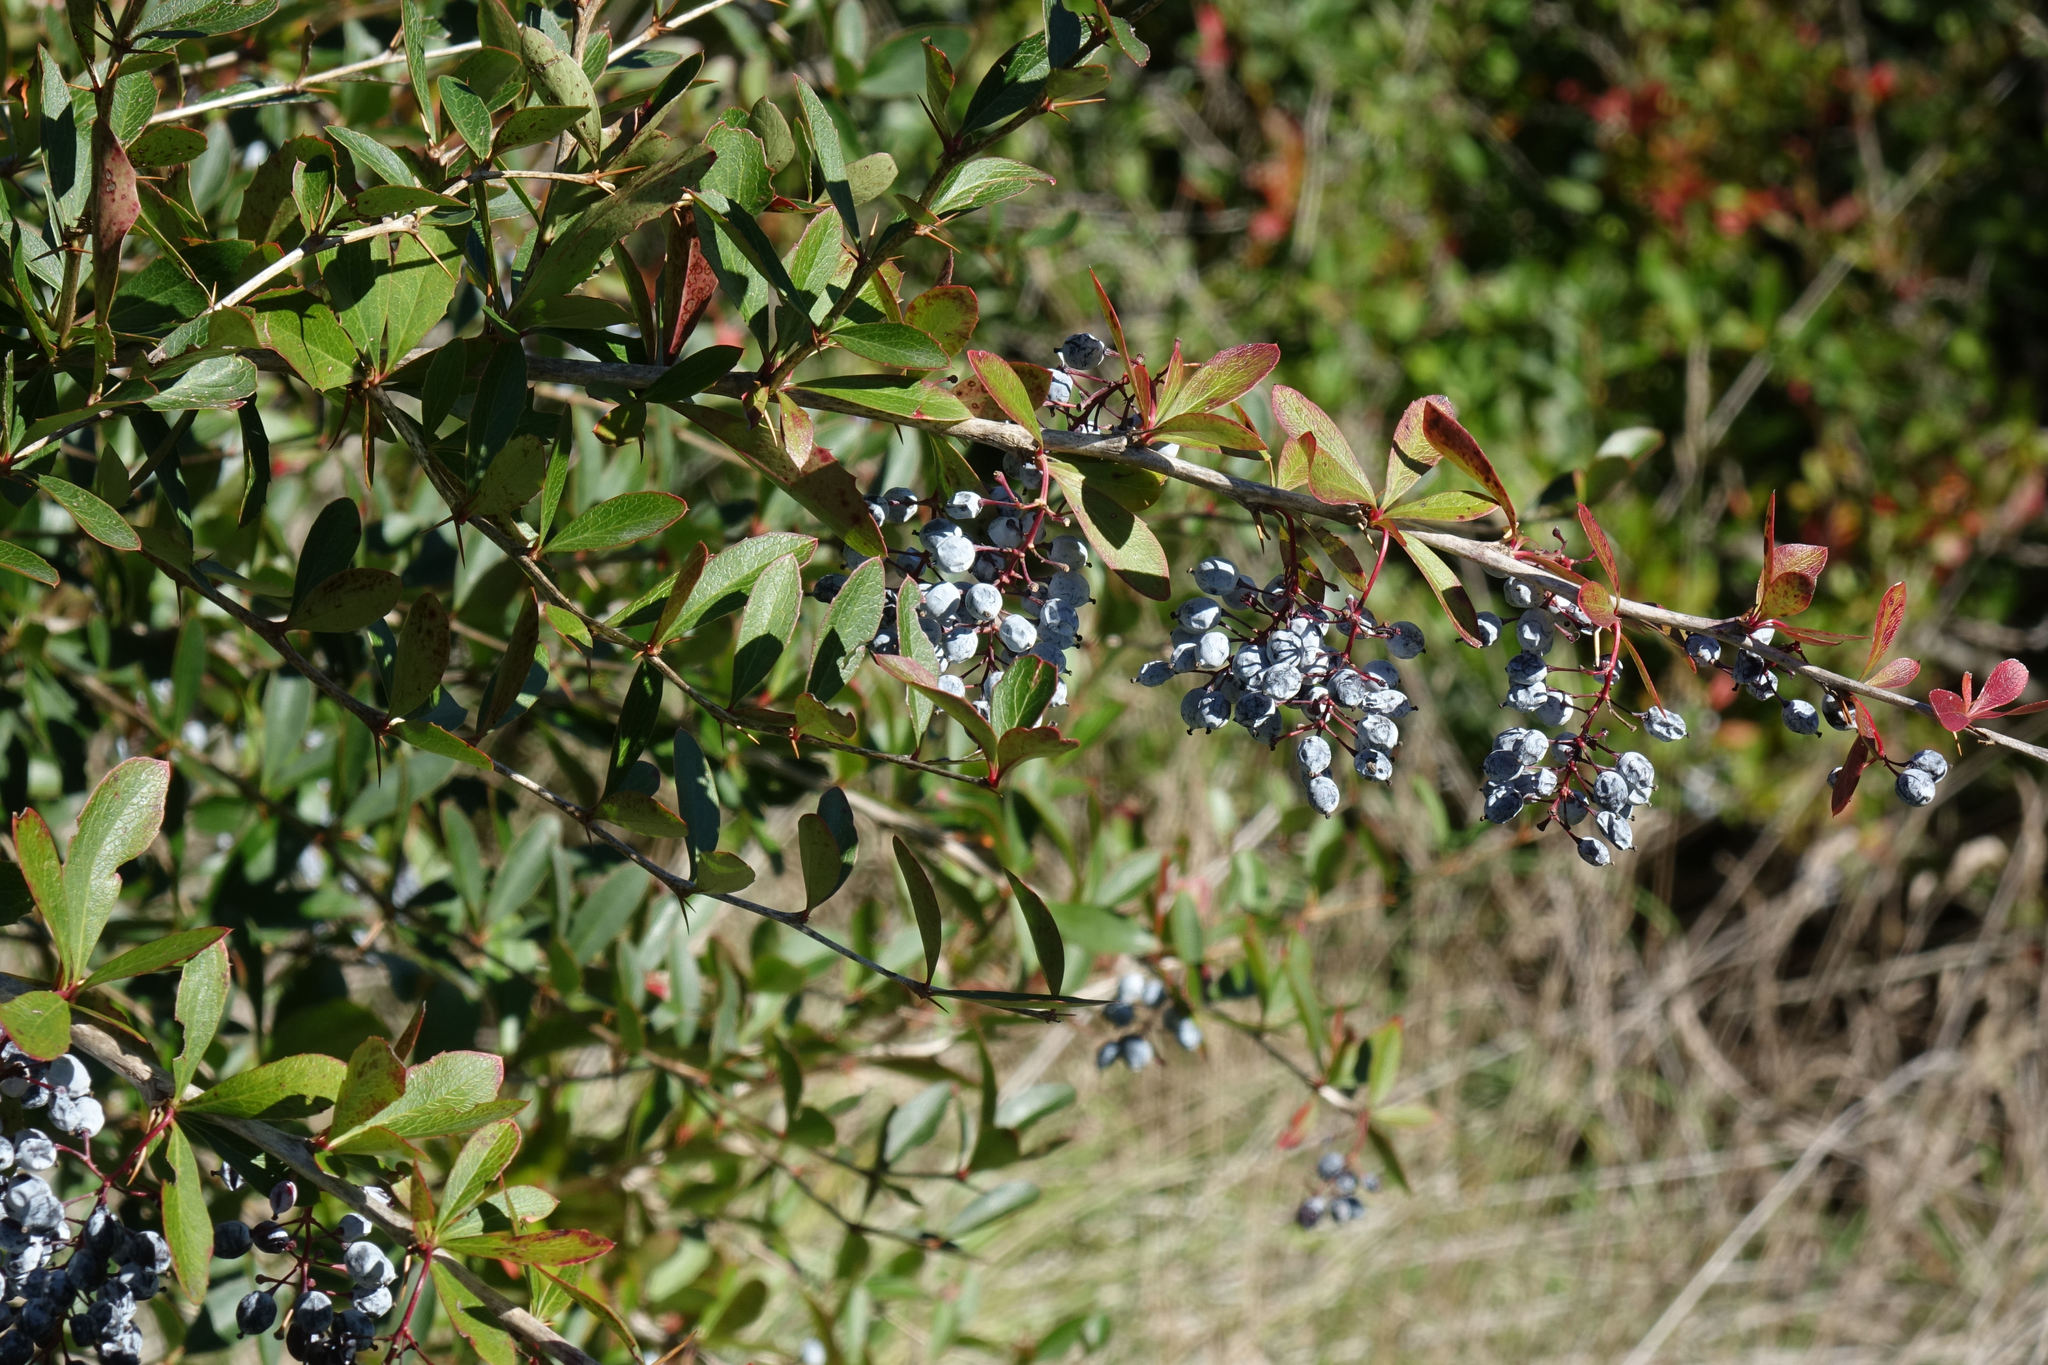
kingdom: Plantae
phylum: Tracheophyta
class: Magnoliopsida
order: Ranunculales
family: Berberidaceae
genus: Berberis
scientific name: Berberis glaucocarpa
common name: Great barberry
